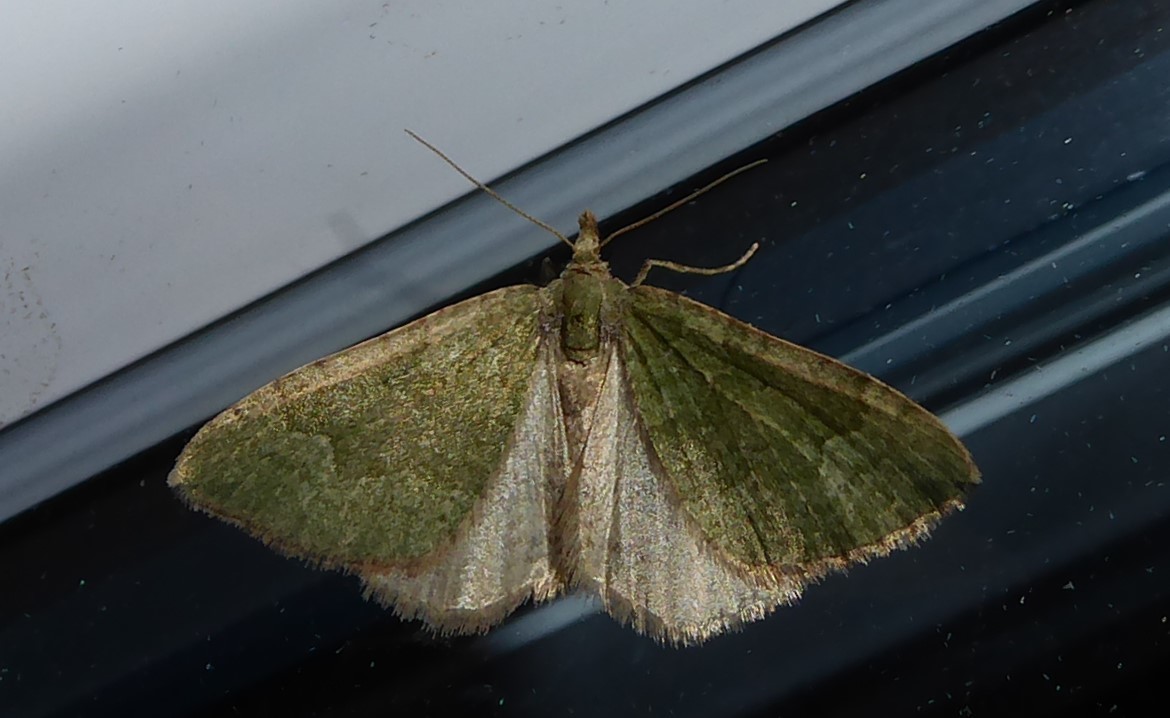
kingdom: Animalia
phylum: Arthropoda
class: Insecta
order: Lepidoptera
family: Geometridae
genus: Epyaxa
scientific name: Epyaxa rosearia
